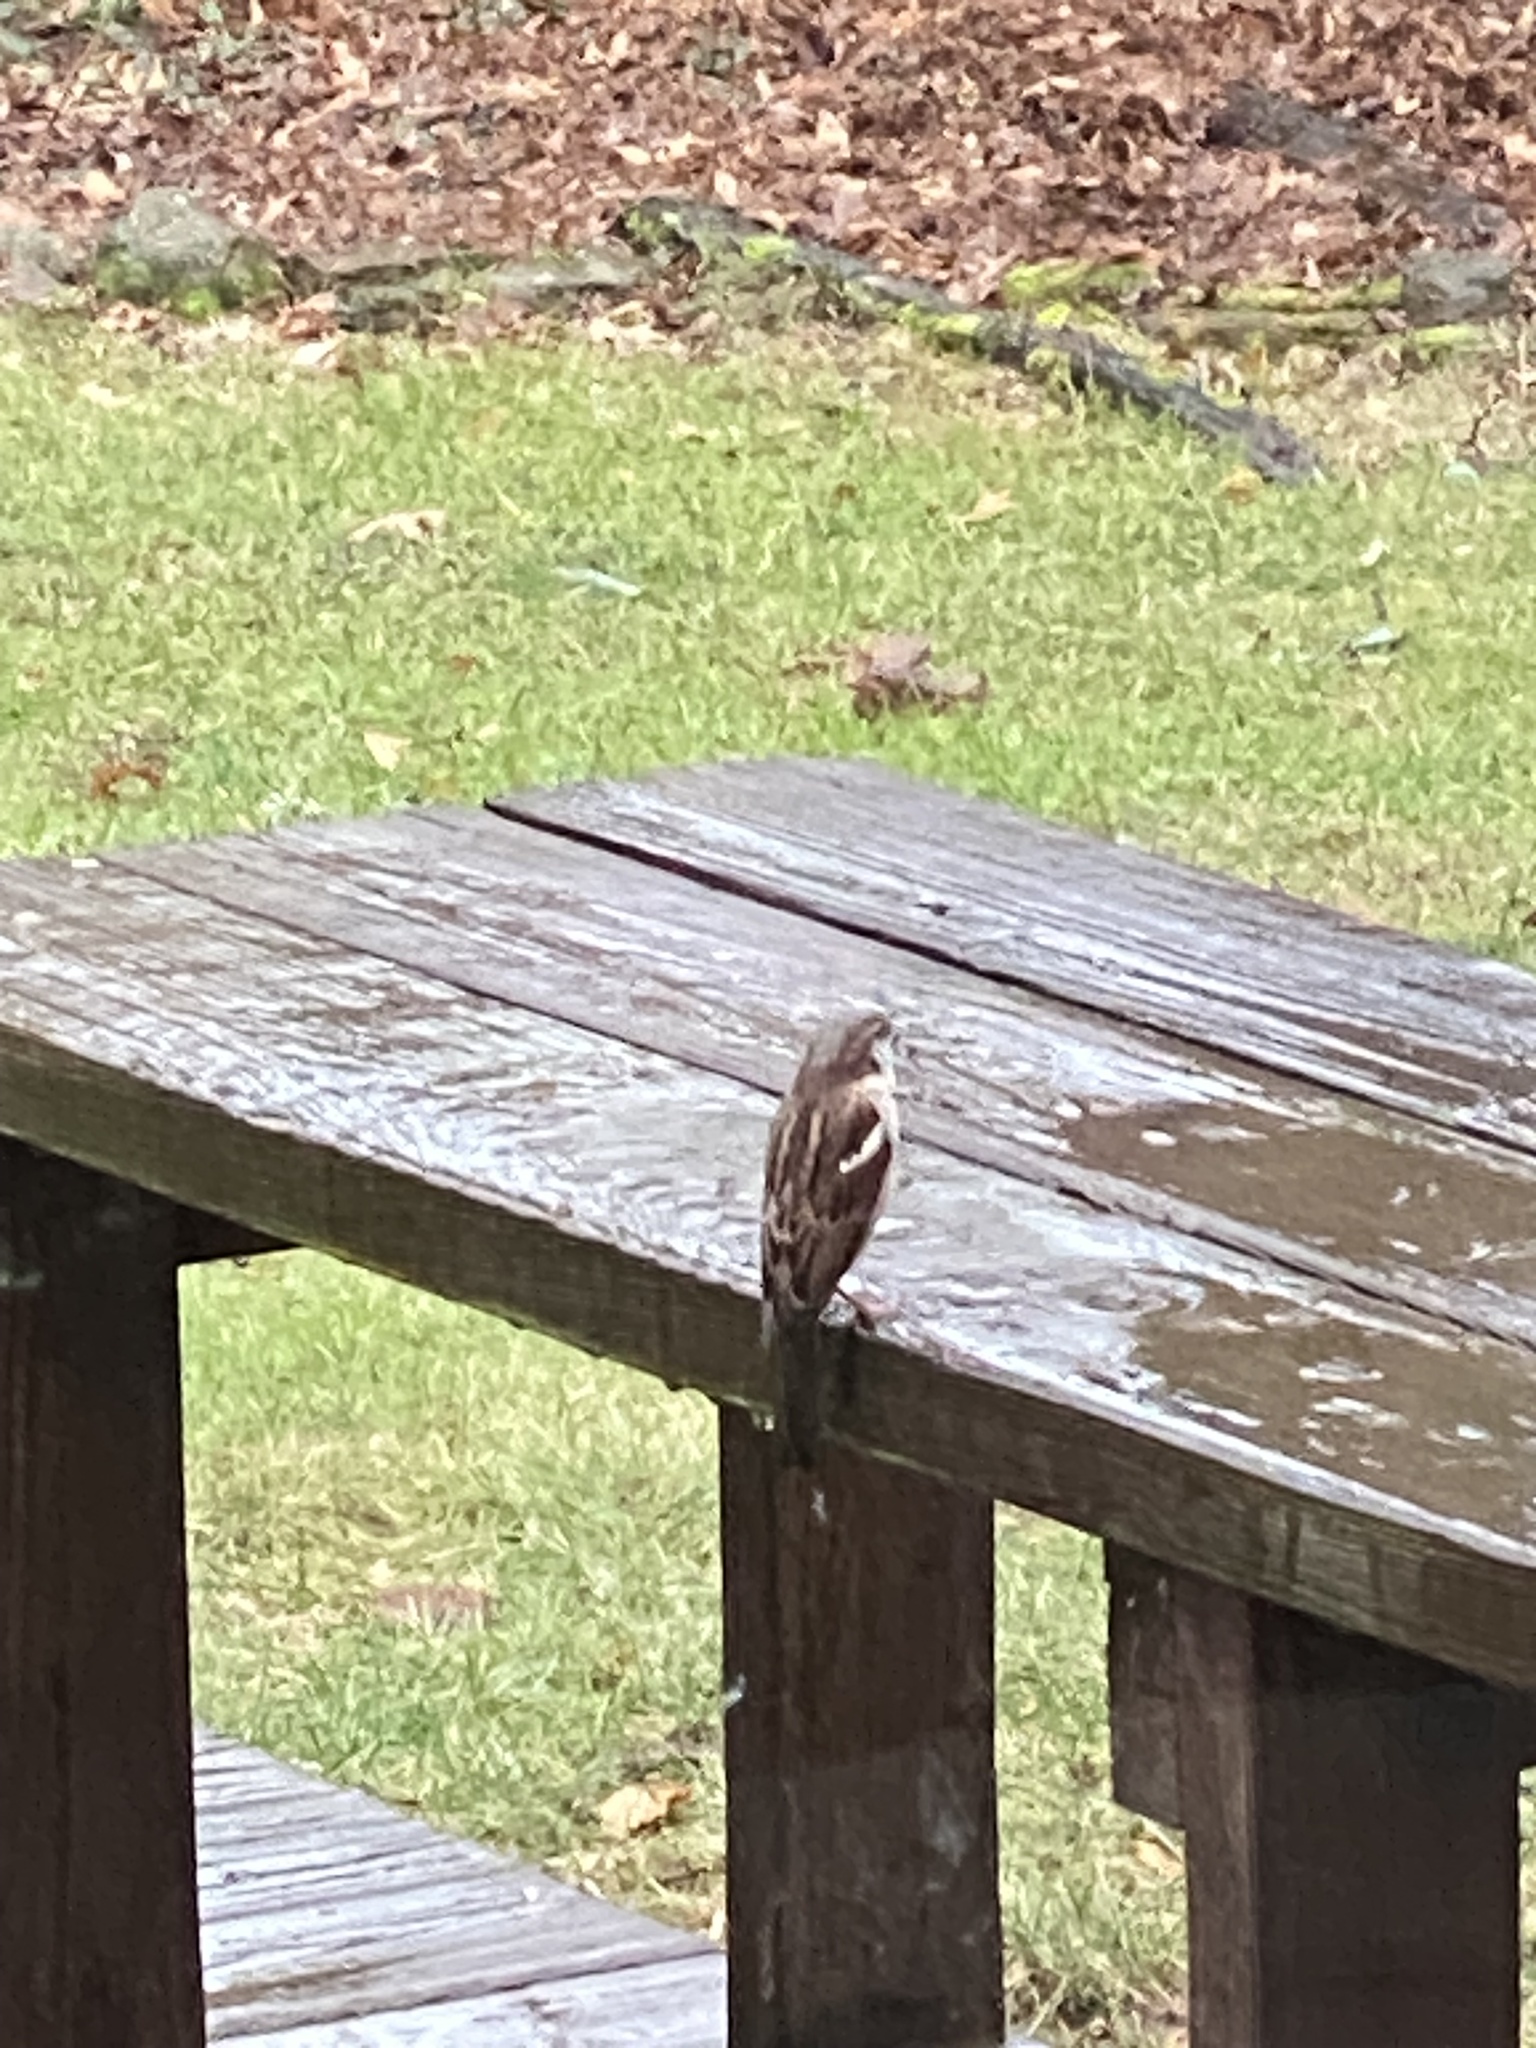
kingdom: Animalia
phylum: Chordata
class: Aves
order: Passeriformes
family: Passeridae
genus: Passer
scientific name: Passer domesticus
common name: House sparrow
